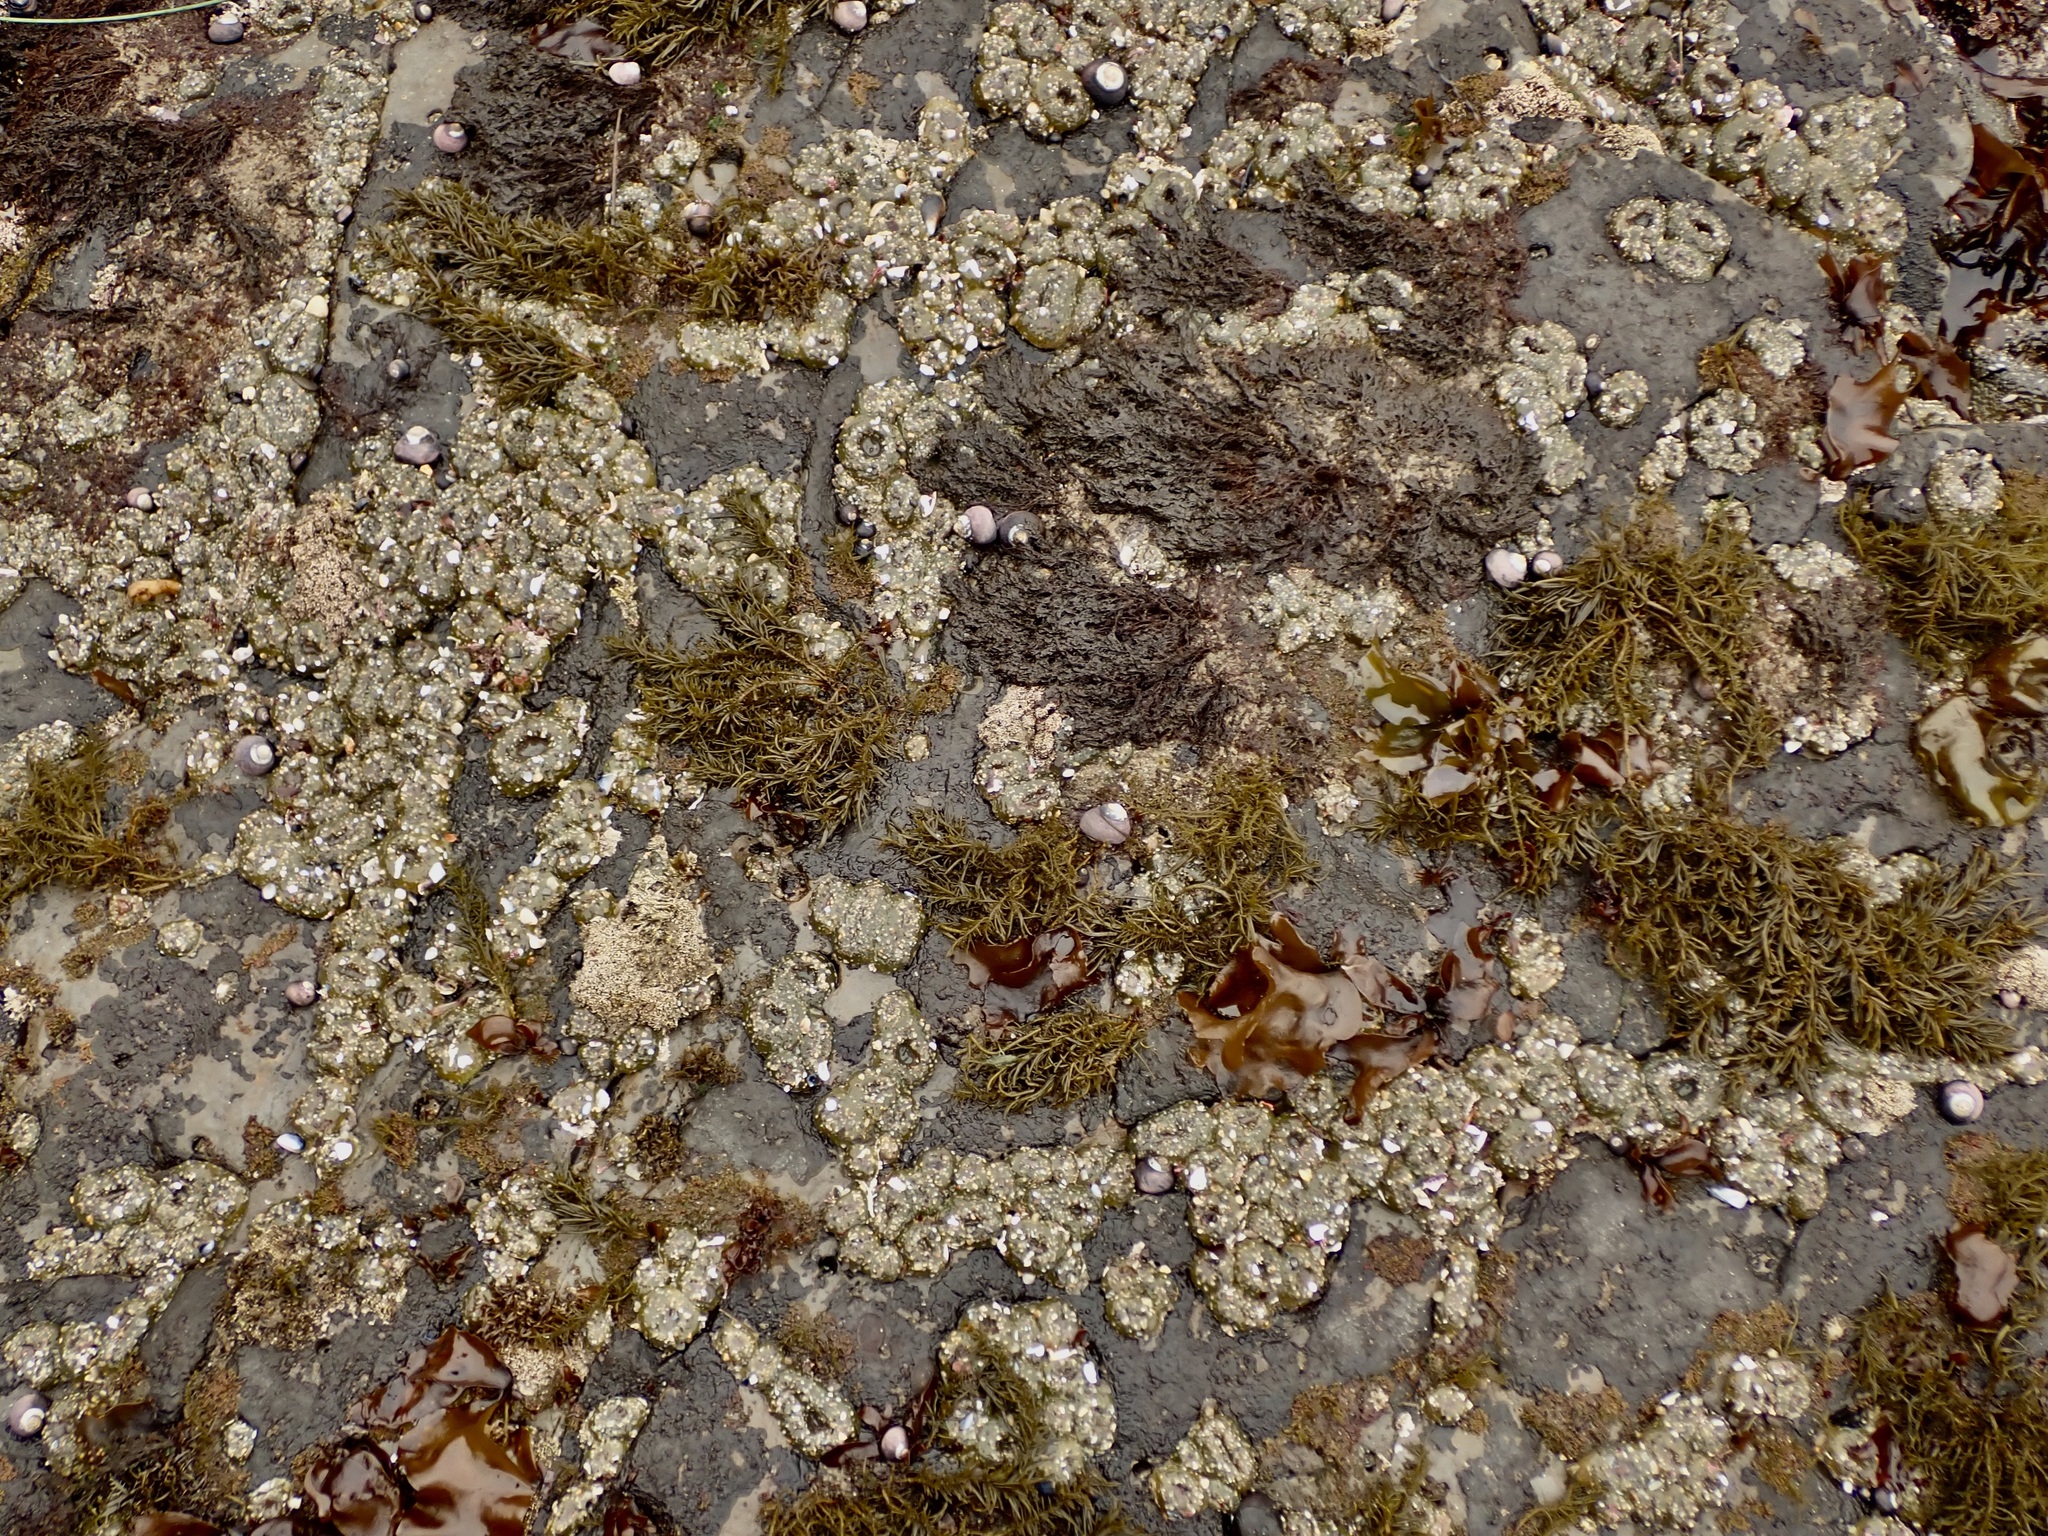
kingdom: Animalia
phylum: Cnidaria
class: Anthozoa
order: Actiniaria
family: Actiniidae
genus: Anthopleura
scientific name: Anthopleura elegantissima
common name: Clonal anemone
